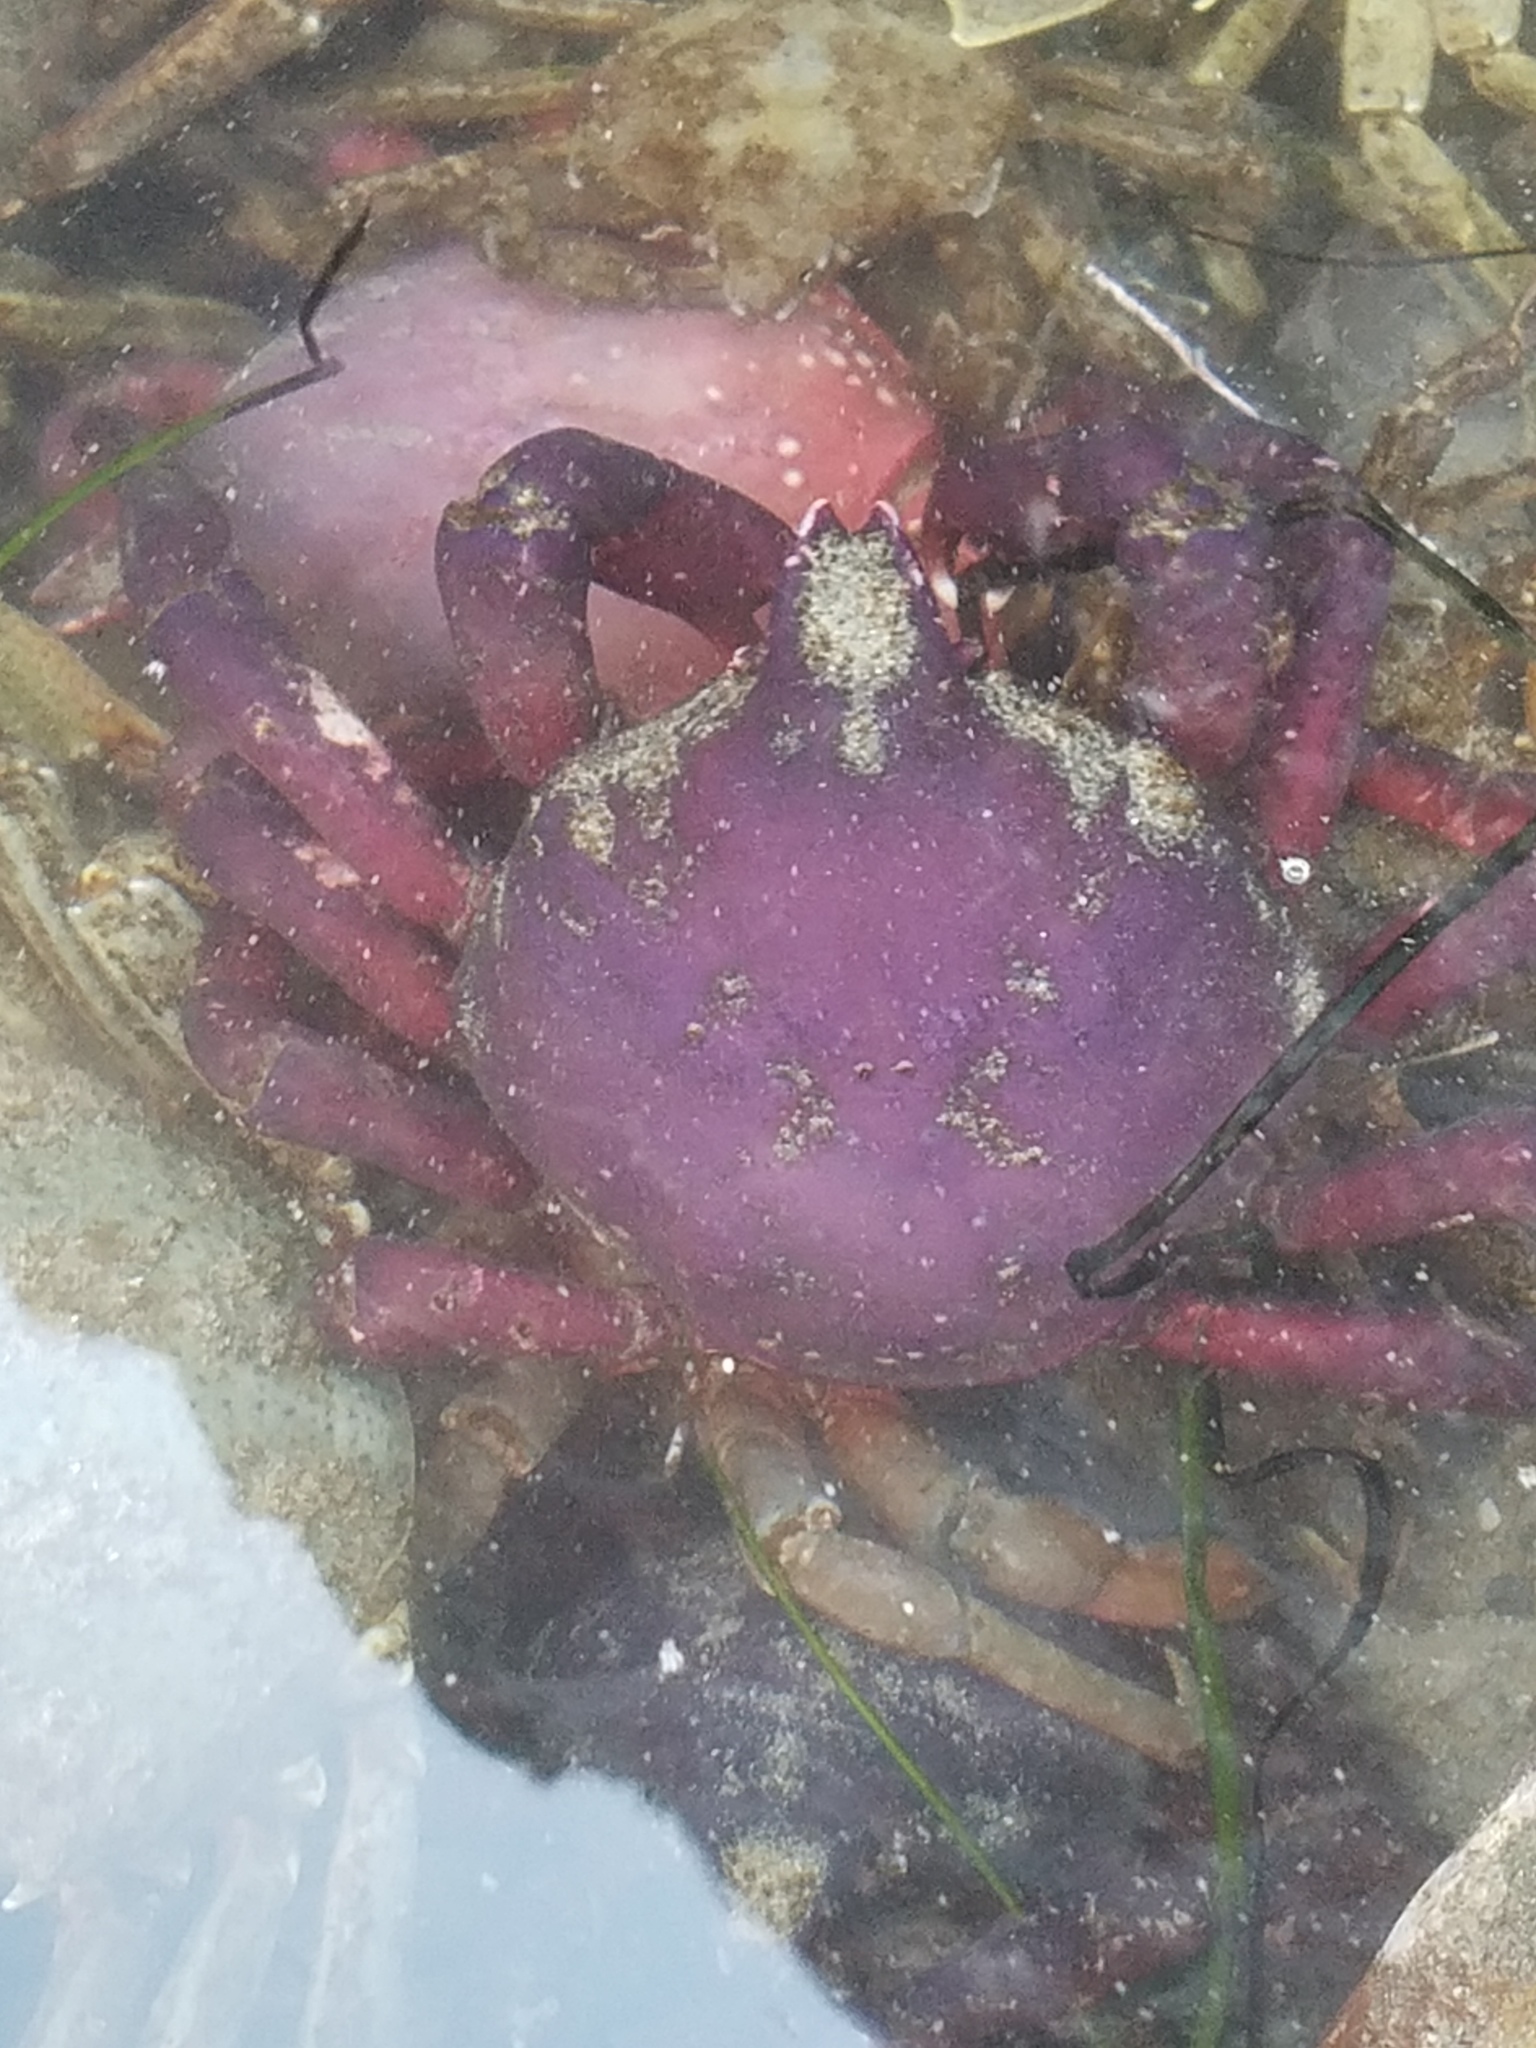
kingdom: Animalia
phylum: Arthropoda
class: Malacostraca
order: Decapoda
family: Epialtidae
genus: Taliepus
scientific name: Taliepus nuttallii
